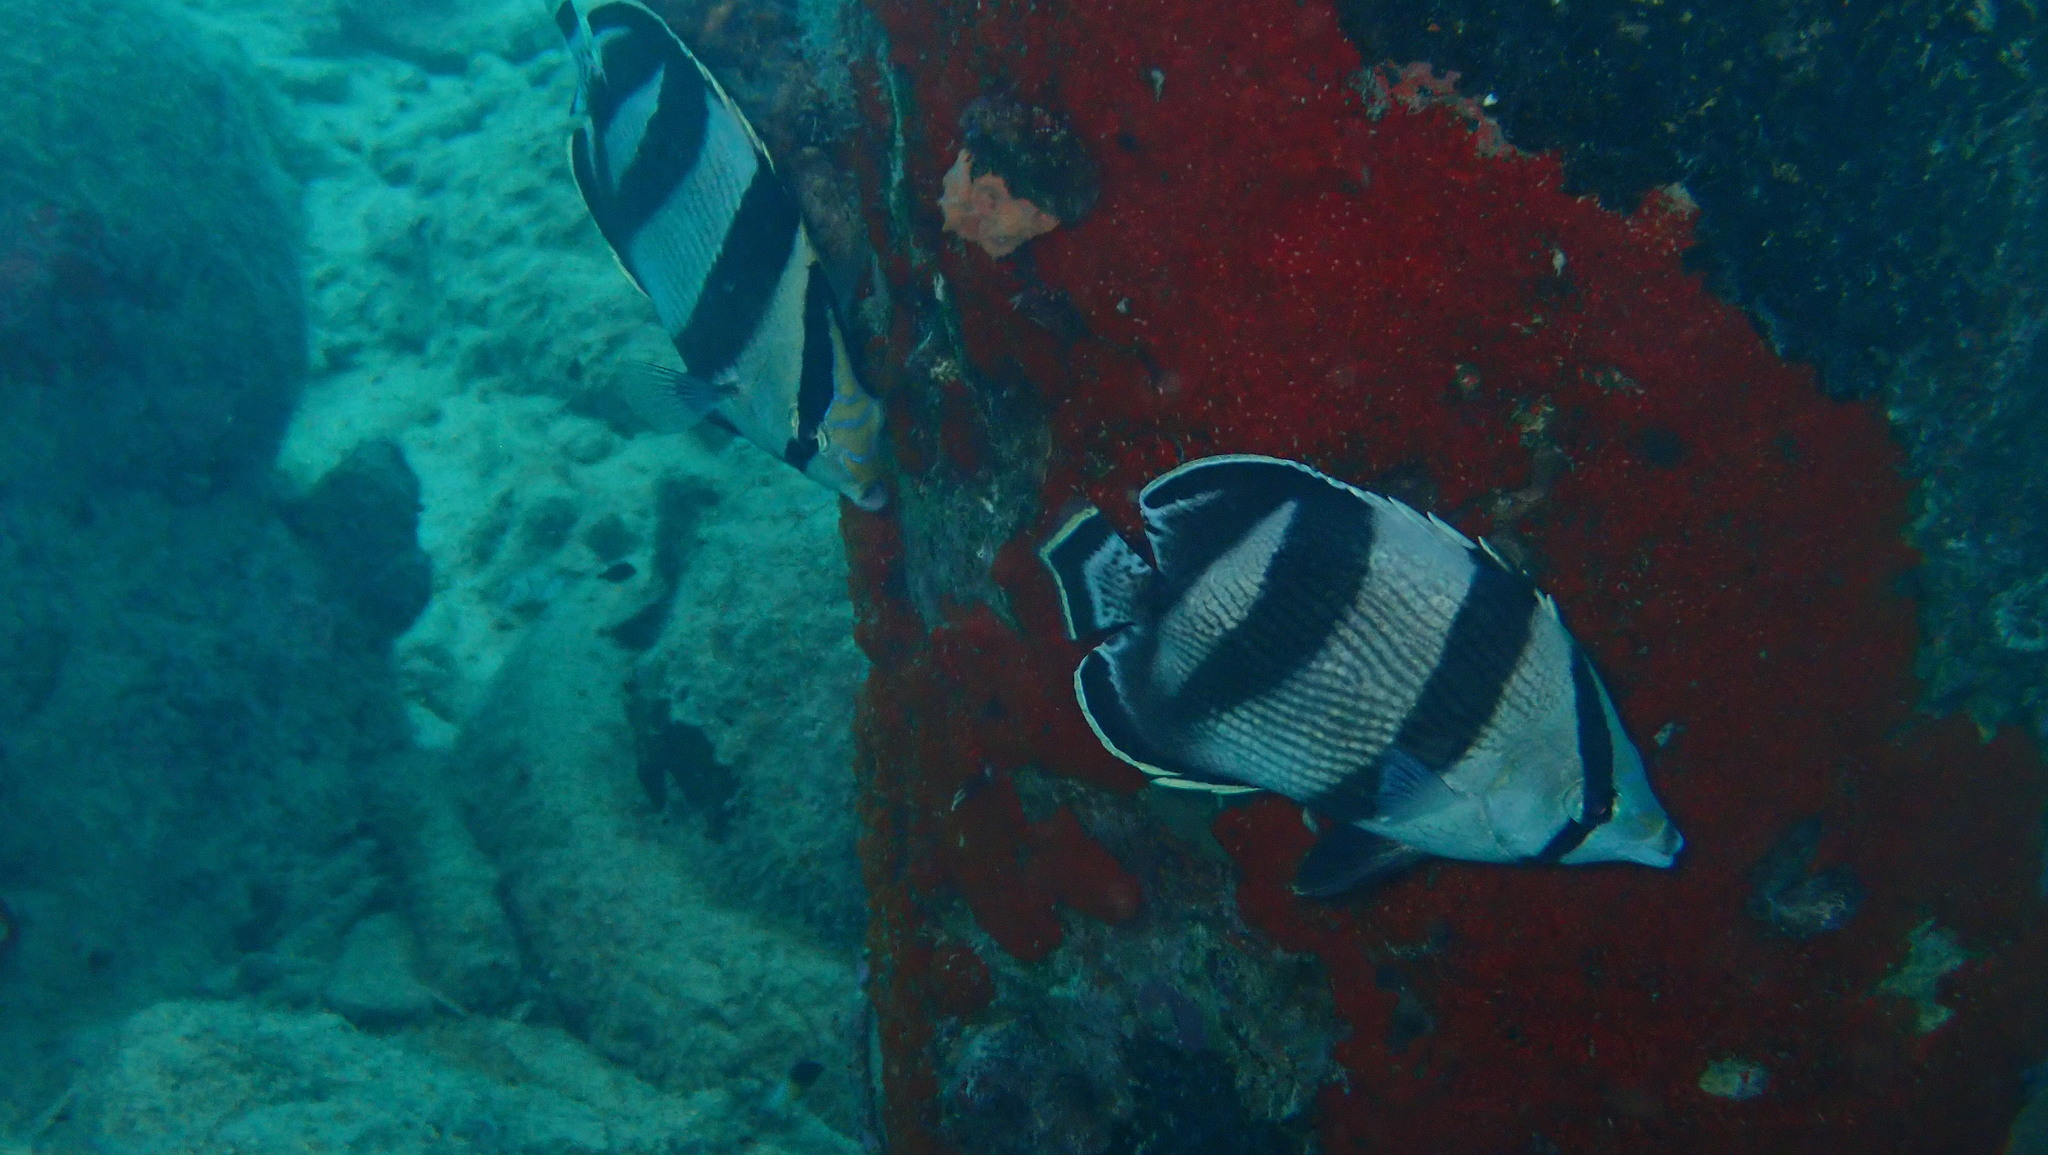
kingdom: Animalia
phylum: Chordata
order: Perciformes
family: Chaetodontidae
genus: Chaetodon
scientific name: Chaetodon striatus
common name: Banded butterflyfish
